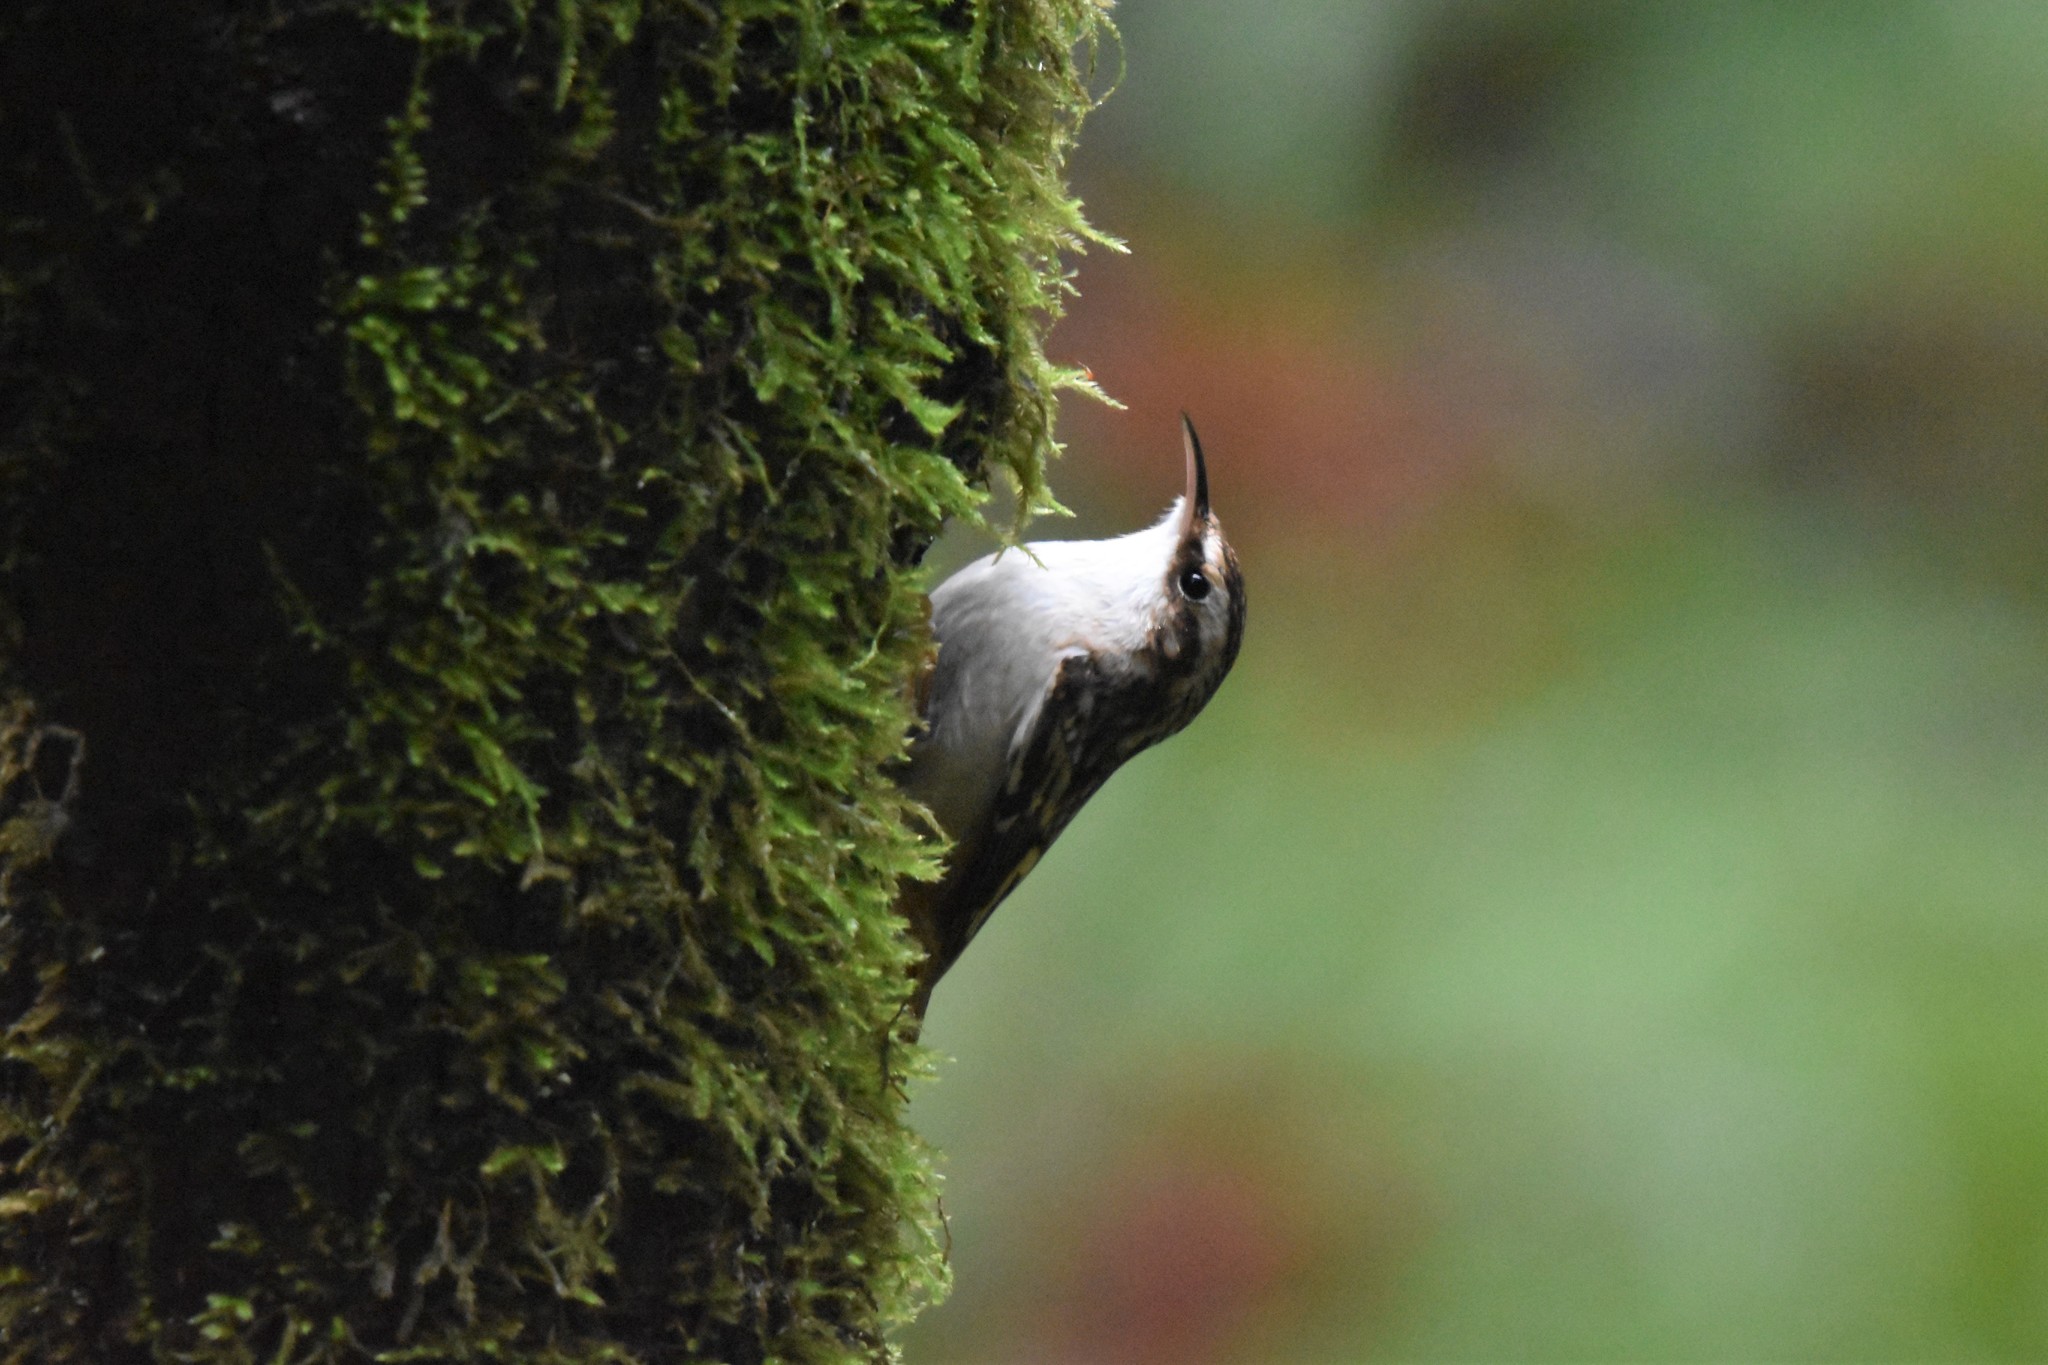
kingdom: Animalia
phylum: Chordata
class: Aves
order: Passeriformes
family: Certhiidae
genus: Certhia
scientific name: Certhia americana
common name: Brown creeper
